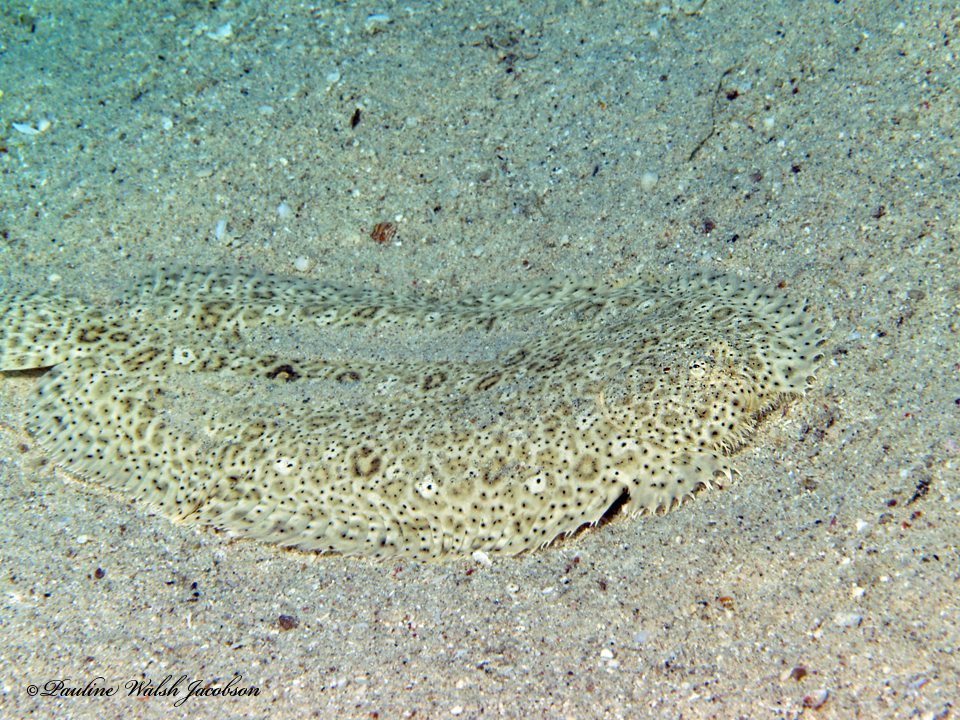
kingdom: Animalia
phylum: Chordata
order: Pleuronectiformes
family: Soleidae
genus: Pardachirus
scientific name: Pardachirus marmoratus
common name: Finless sole
